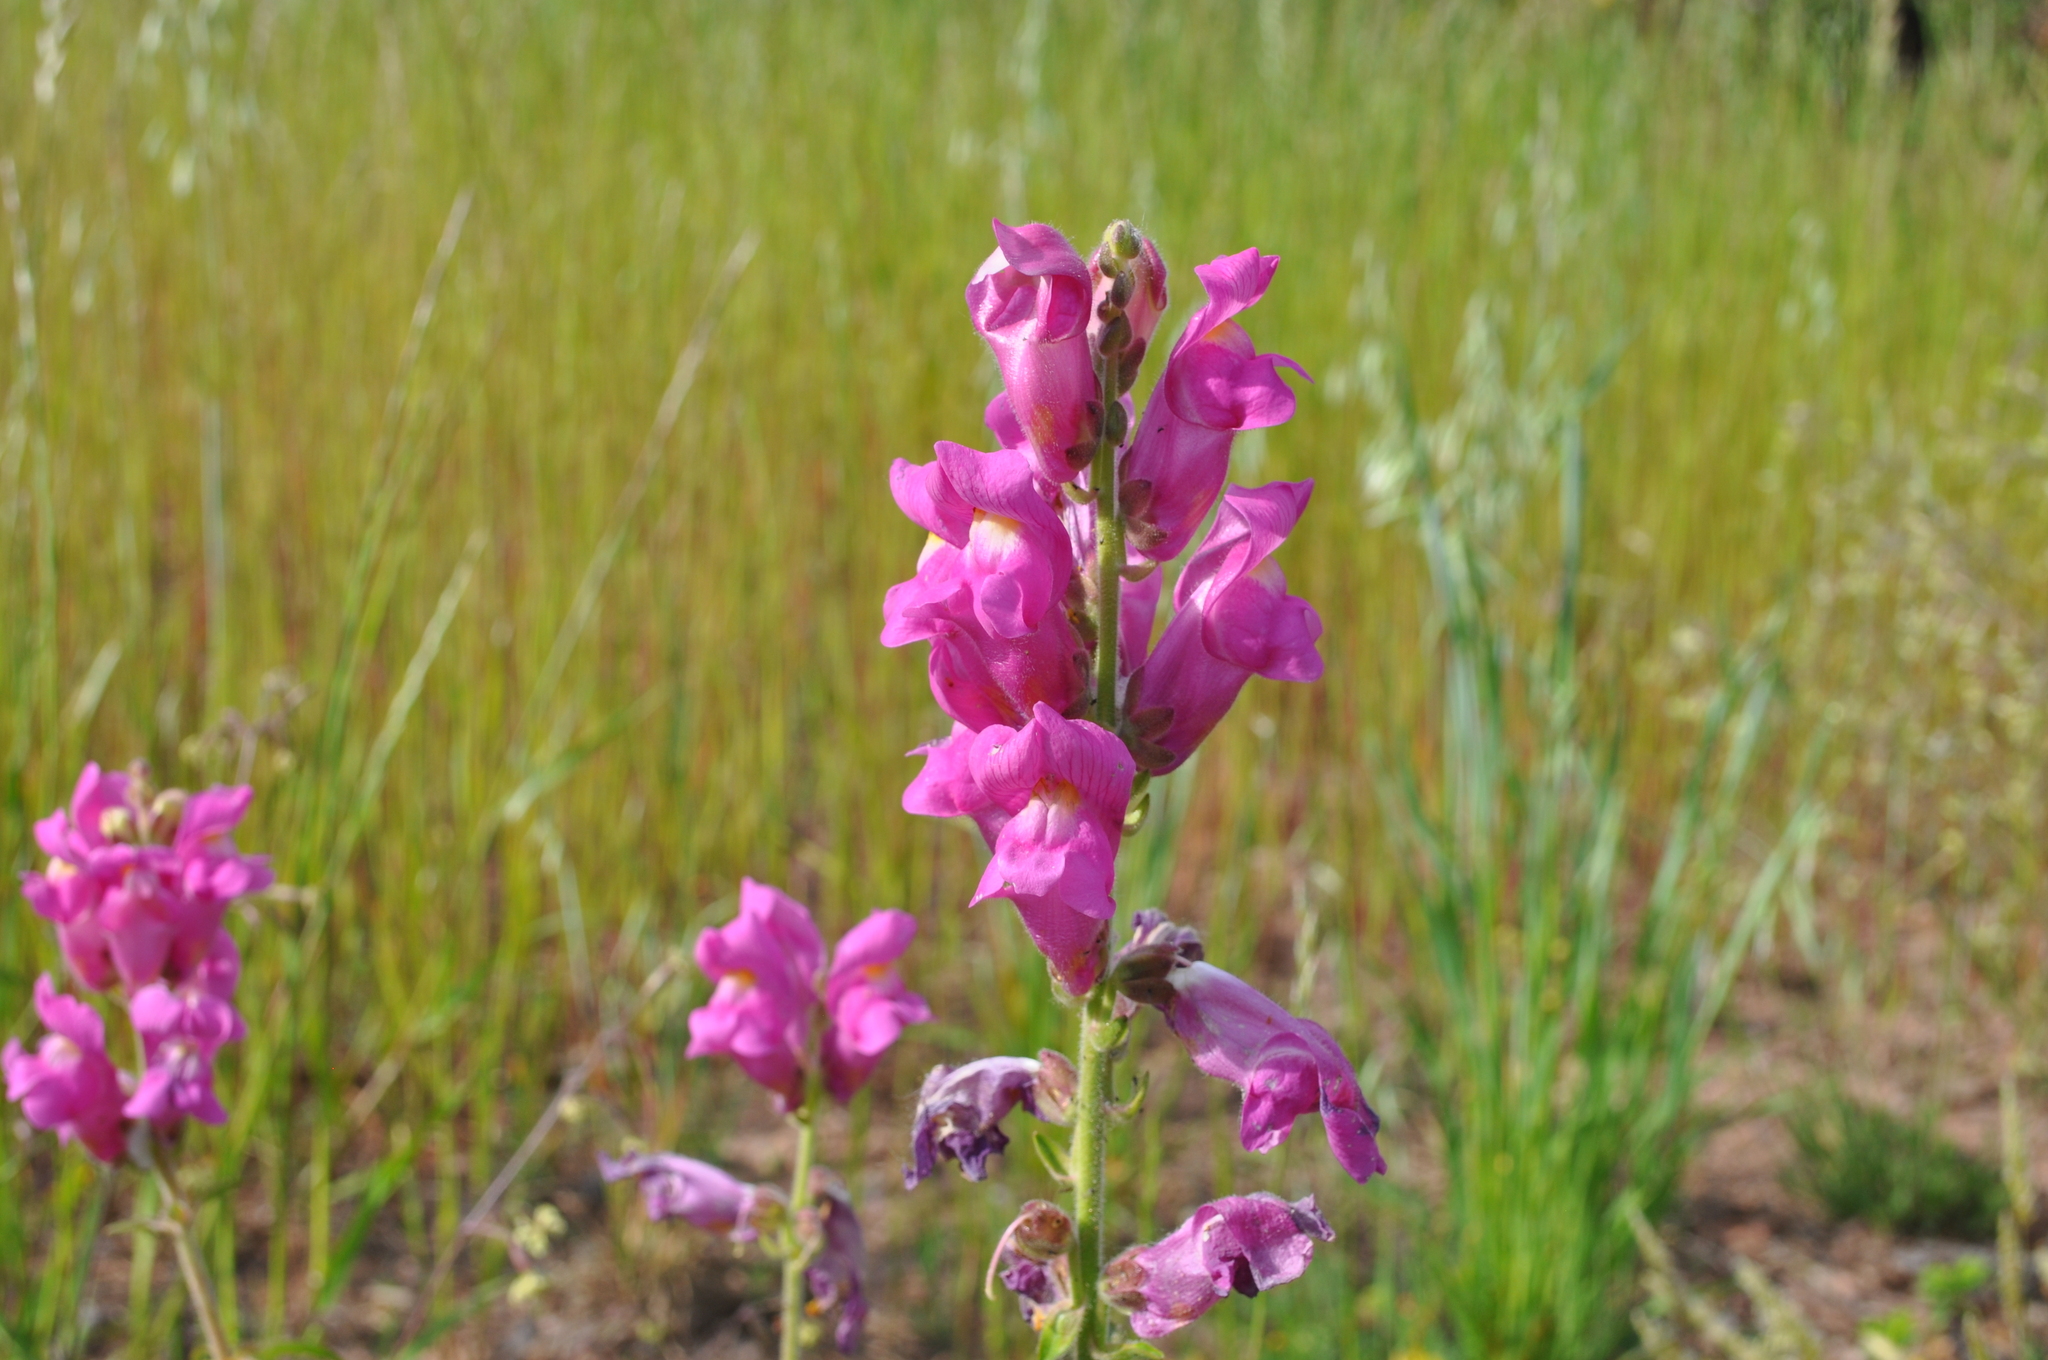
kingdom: Plantae
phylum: Tracheophyta
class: Magnoliopsida
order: Lamiales
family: Plantaginaceae
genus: Antirrhinum
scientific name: Antirrhinum majus
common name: Snapdragon
